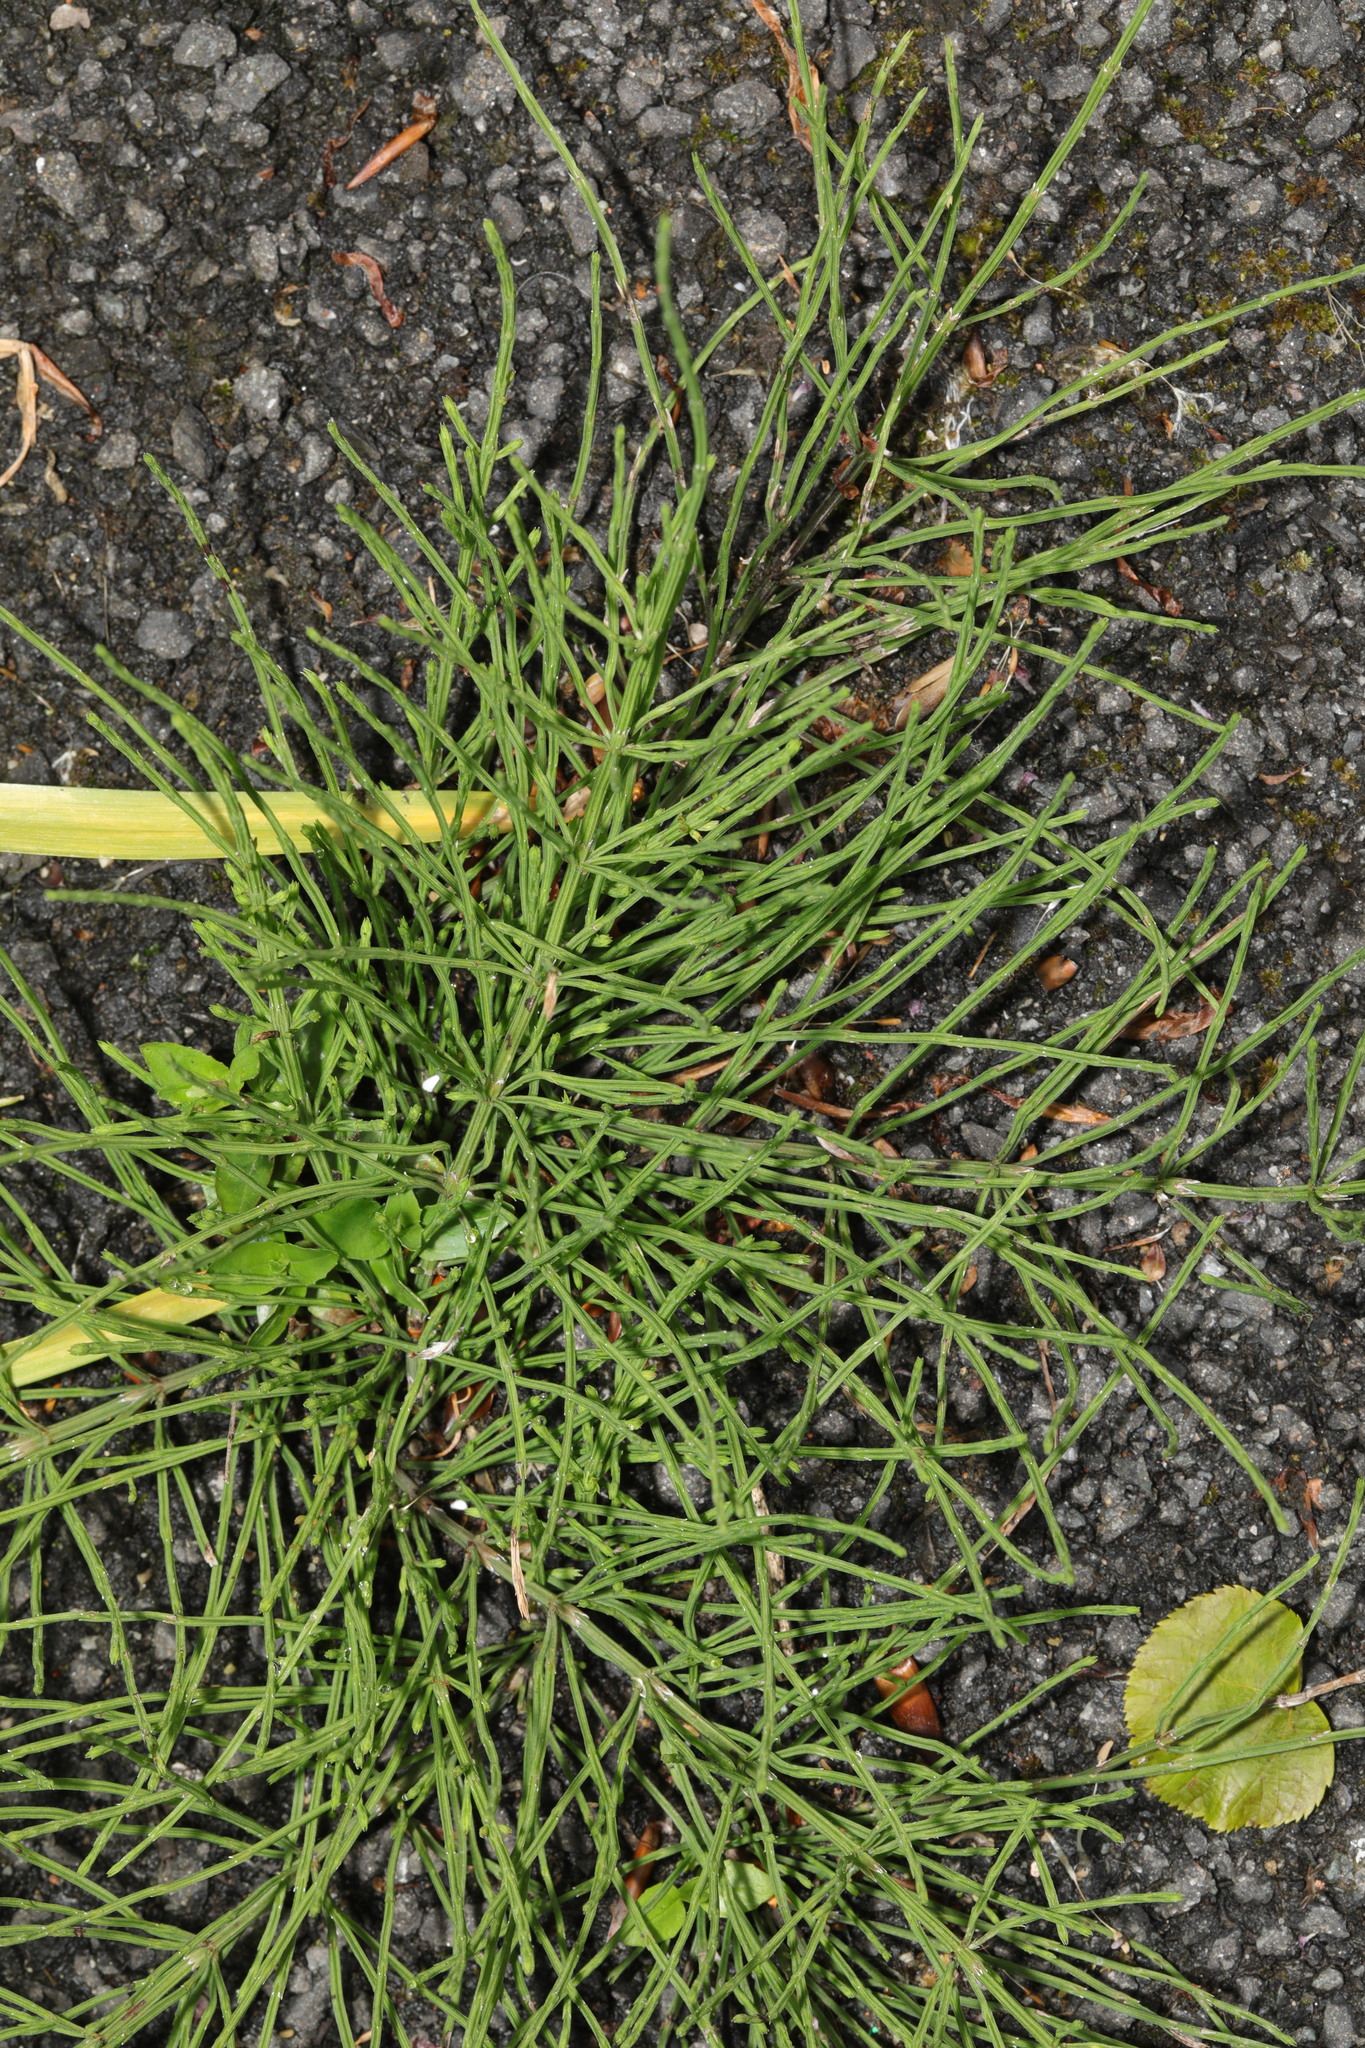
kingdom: Plantae
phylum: Tracheophyta
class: Polypodiopsida
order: Equisetales
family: Equisetaceae
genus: Equisetum
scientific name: Equisetum arvense
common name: Field horsetail
